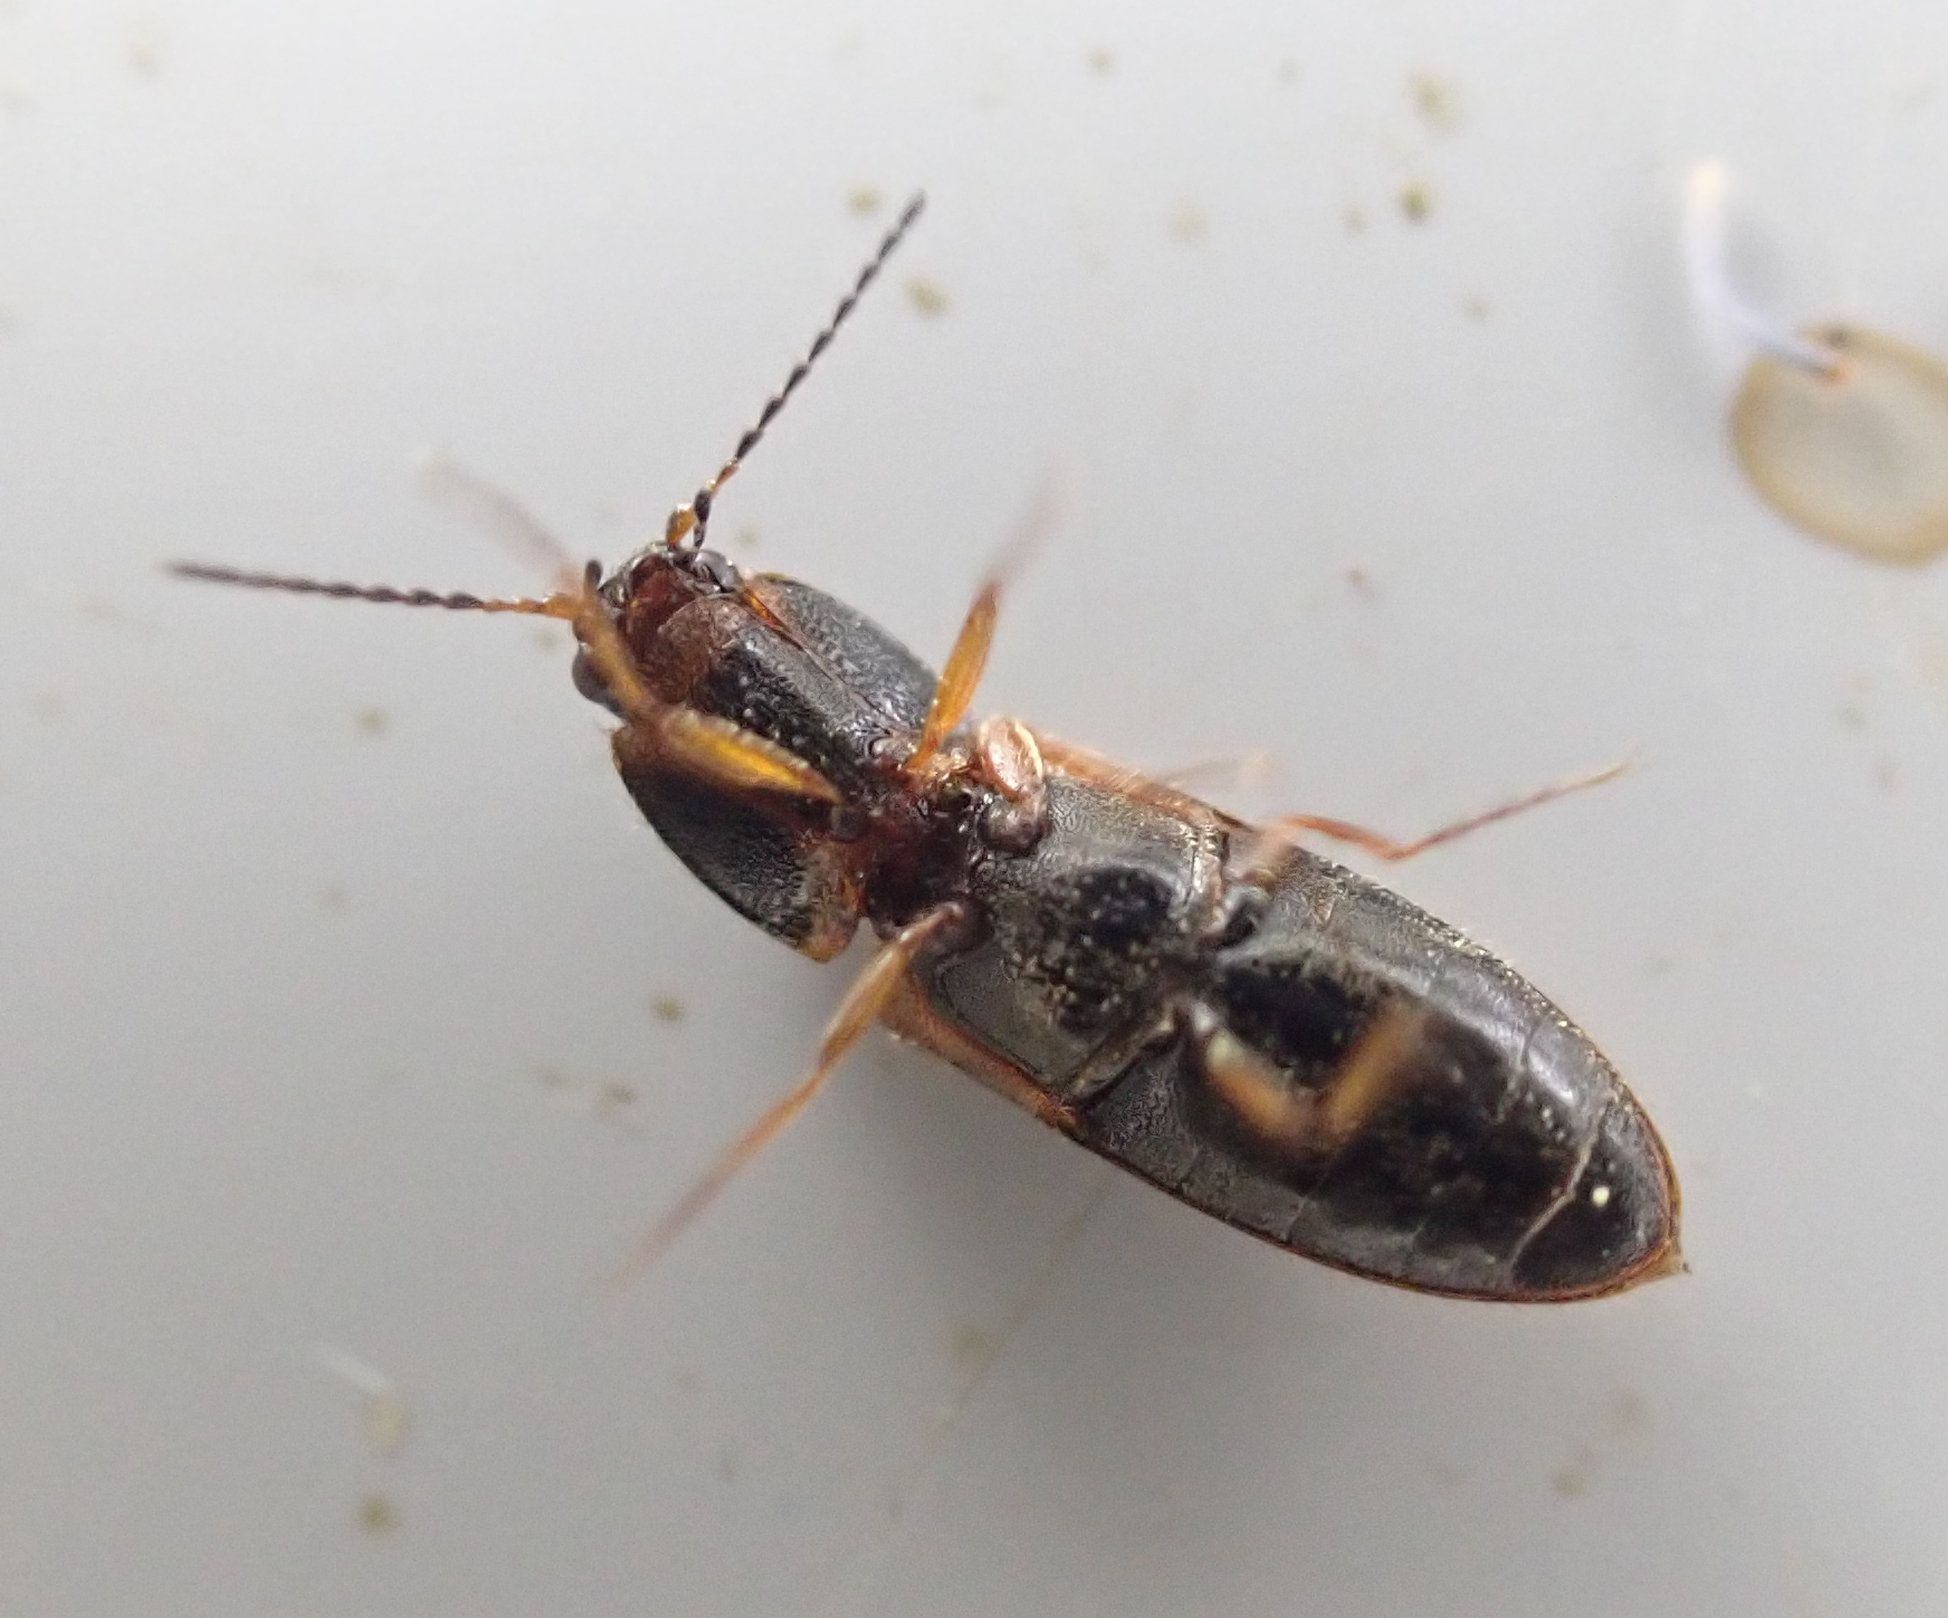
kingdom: Animalia
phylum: Arthropoda
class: Insecta
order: Coleoptera
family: Elateridae
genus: Tetralimonius
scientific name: Tetralimonius
